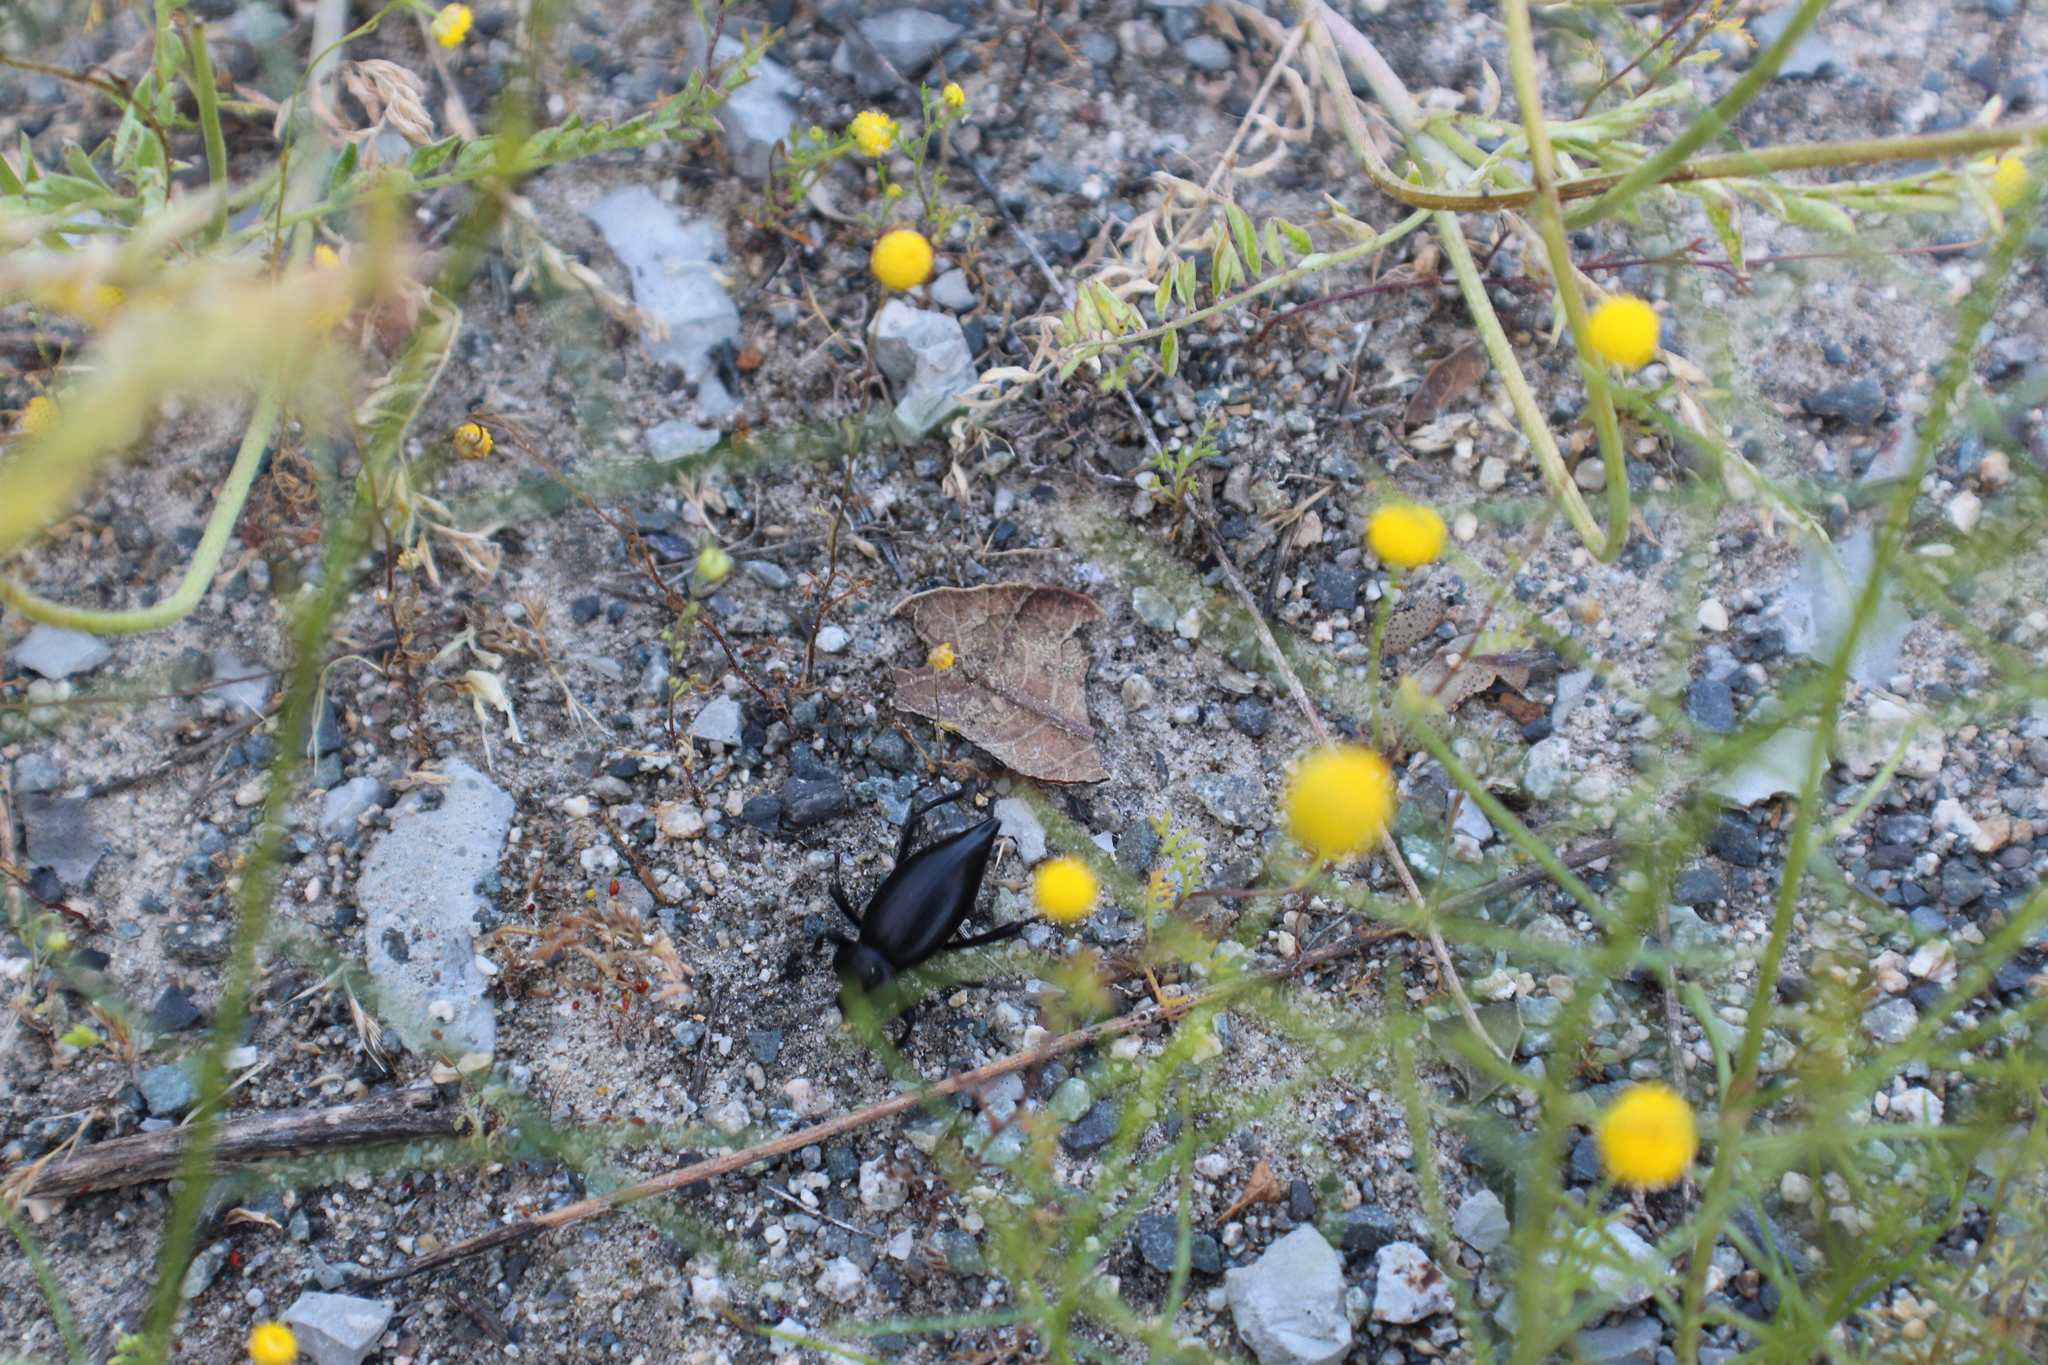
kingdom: Plantae
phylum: Tracheophyta
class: Magnoliopsida
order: Asterales
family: Asteraceae
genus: Oncosiphon
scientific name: Oncosiphon pilulifer
